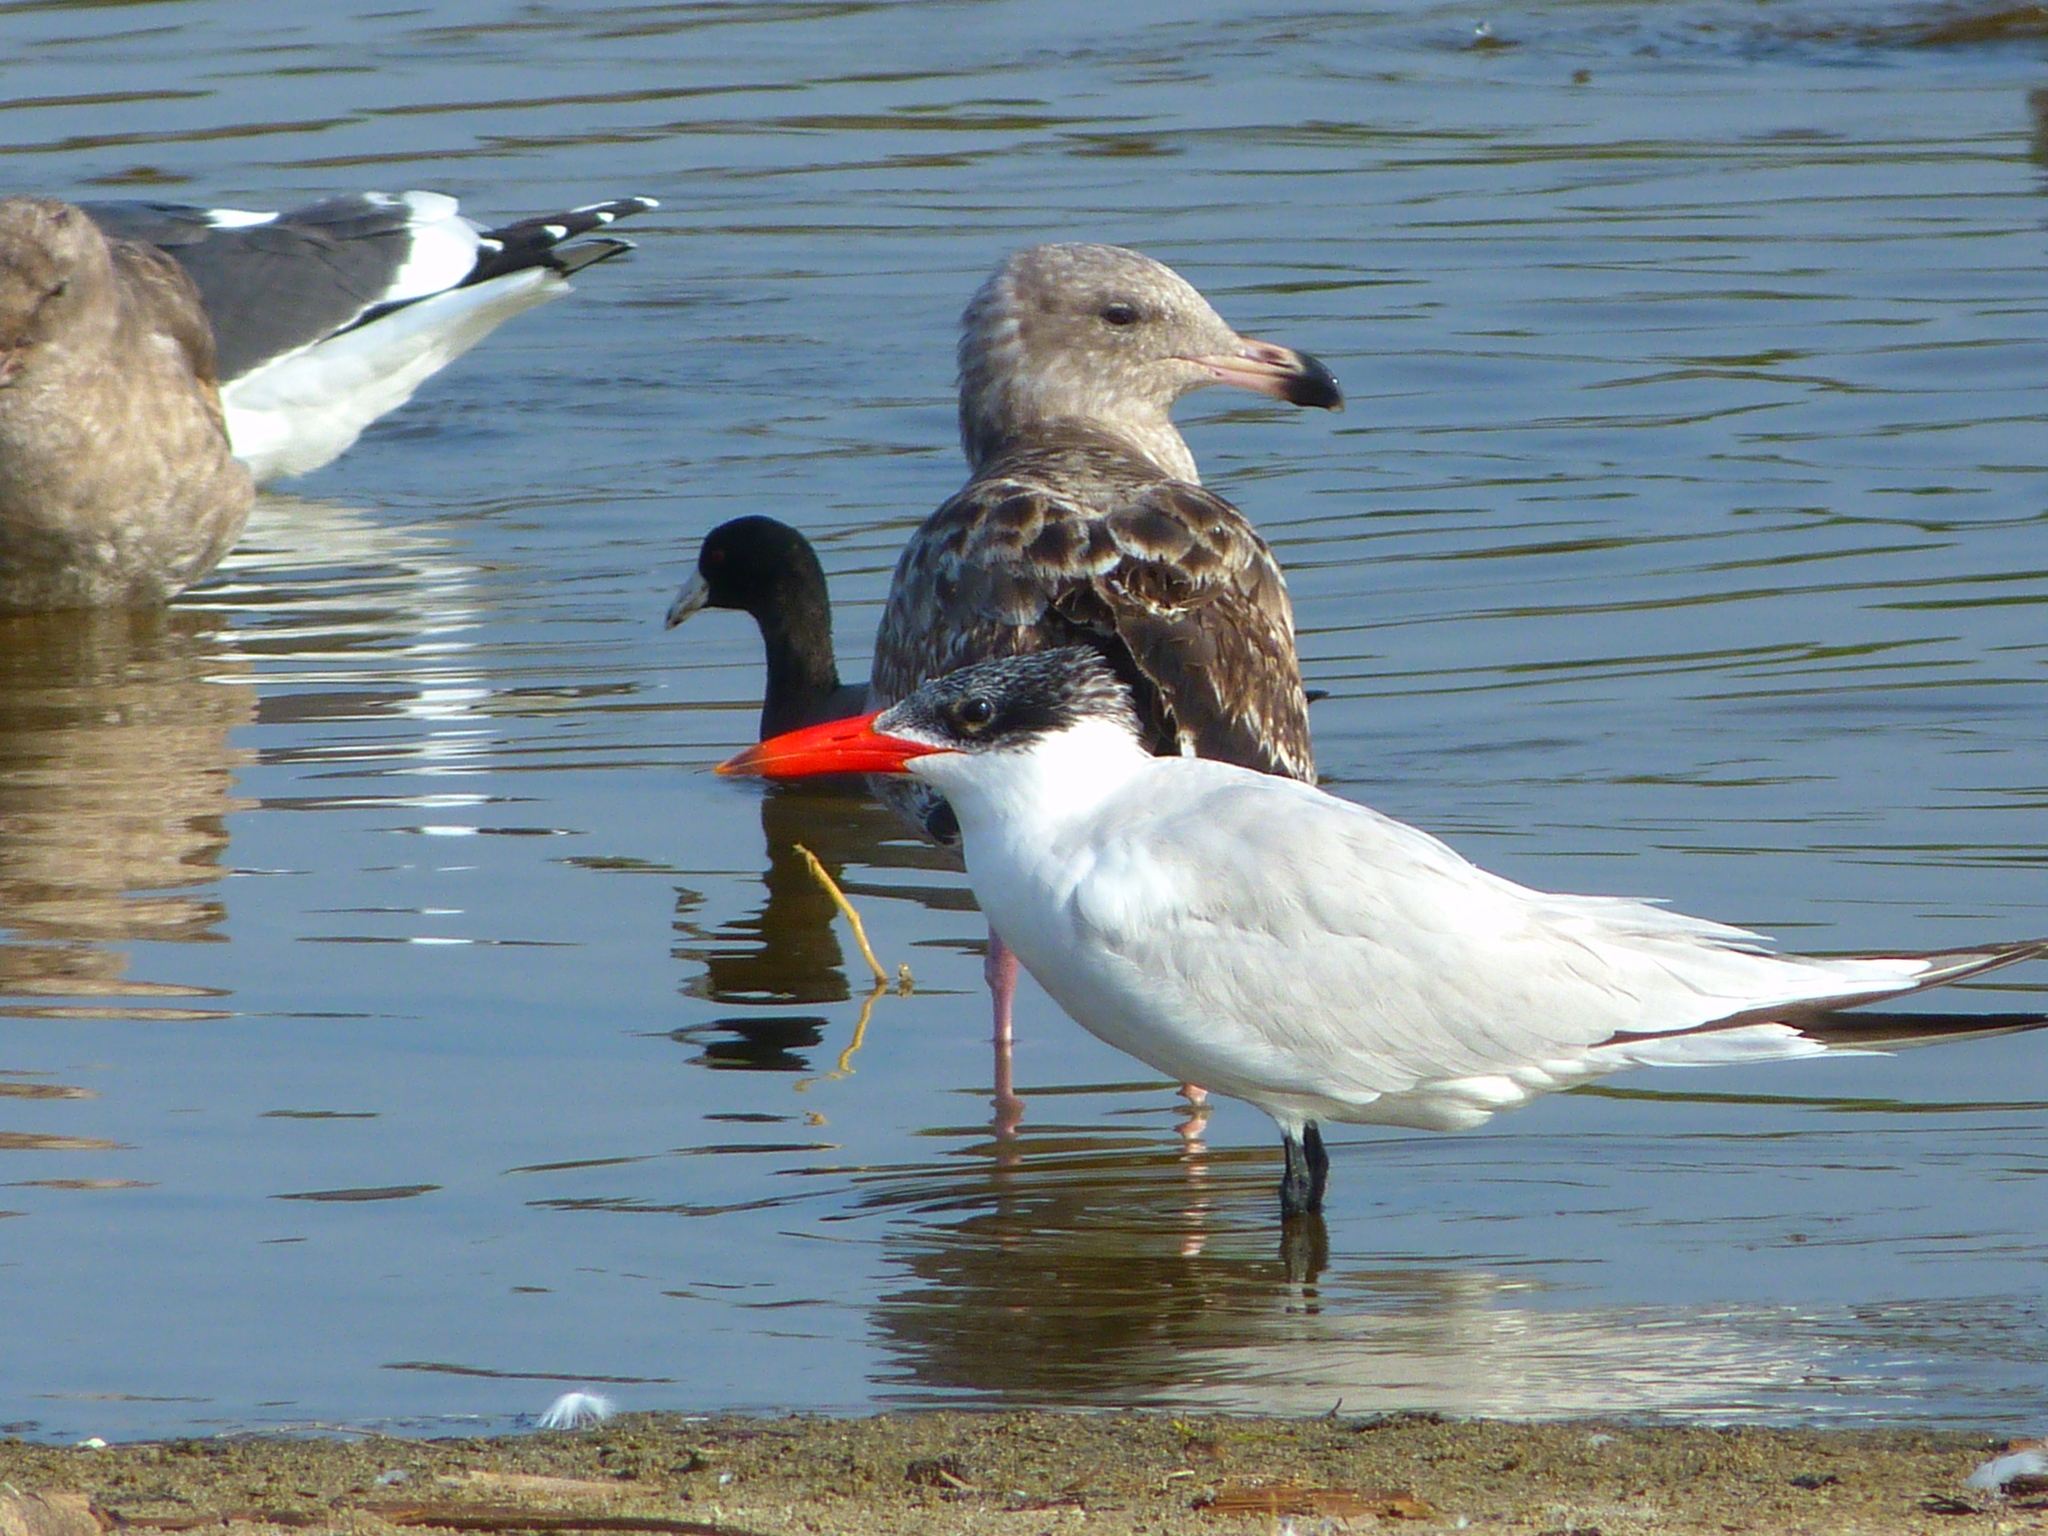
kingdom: Animalia
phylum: Chordata
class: Aves
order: Charadriiformes
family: Laridae
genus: Hydroprogne
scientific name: Hydroprogne caspia
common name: Caspian tern
